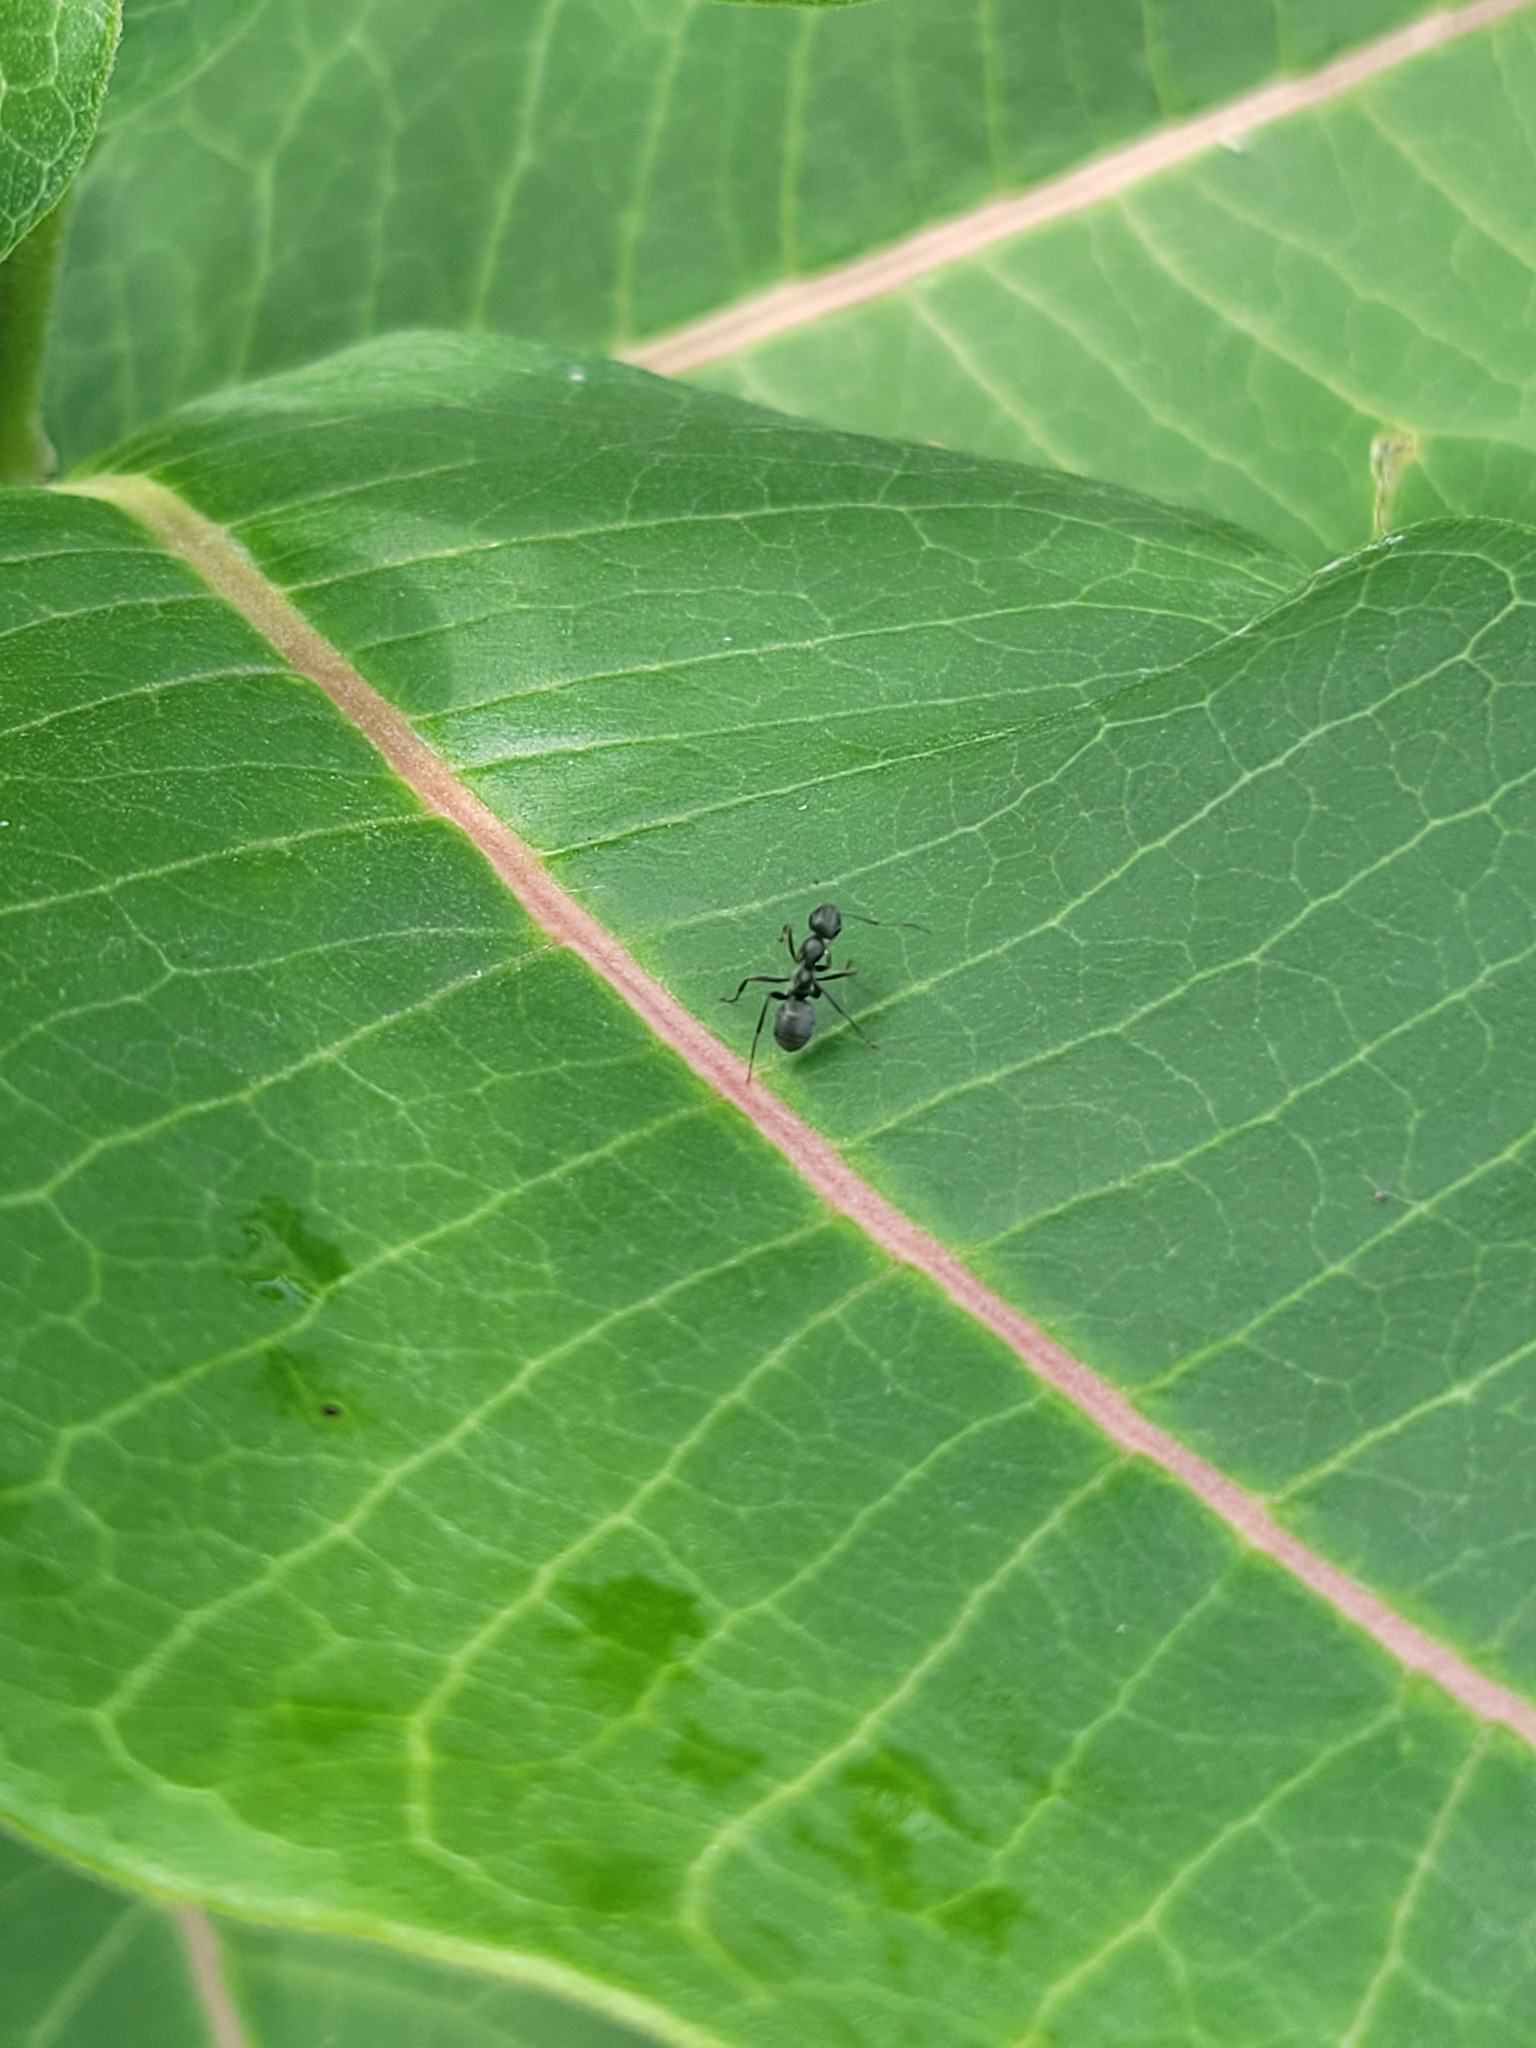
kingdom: Plantae
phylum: Tracheophyta
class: Magnoliopsida
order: Gentianales
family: Apocynaceae
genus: Asclepias
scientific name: Asclepias syriaca
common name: Common milkweed
